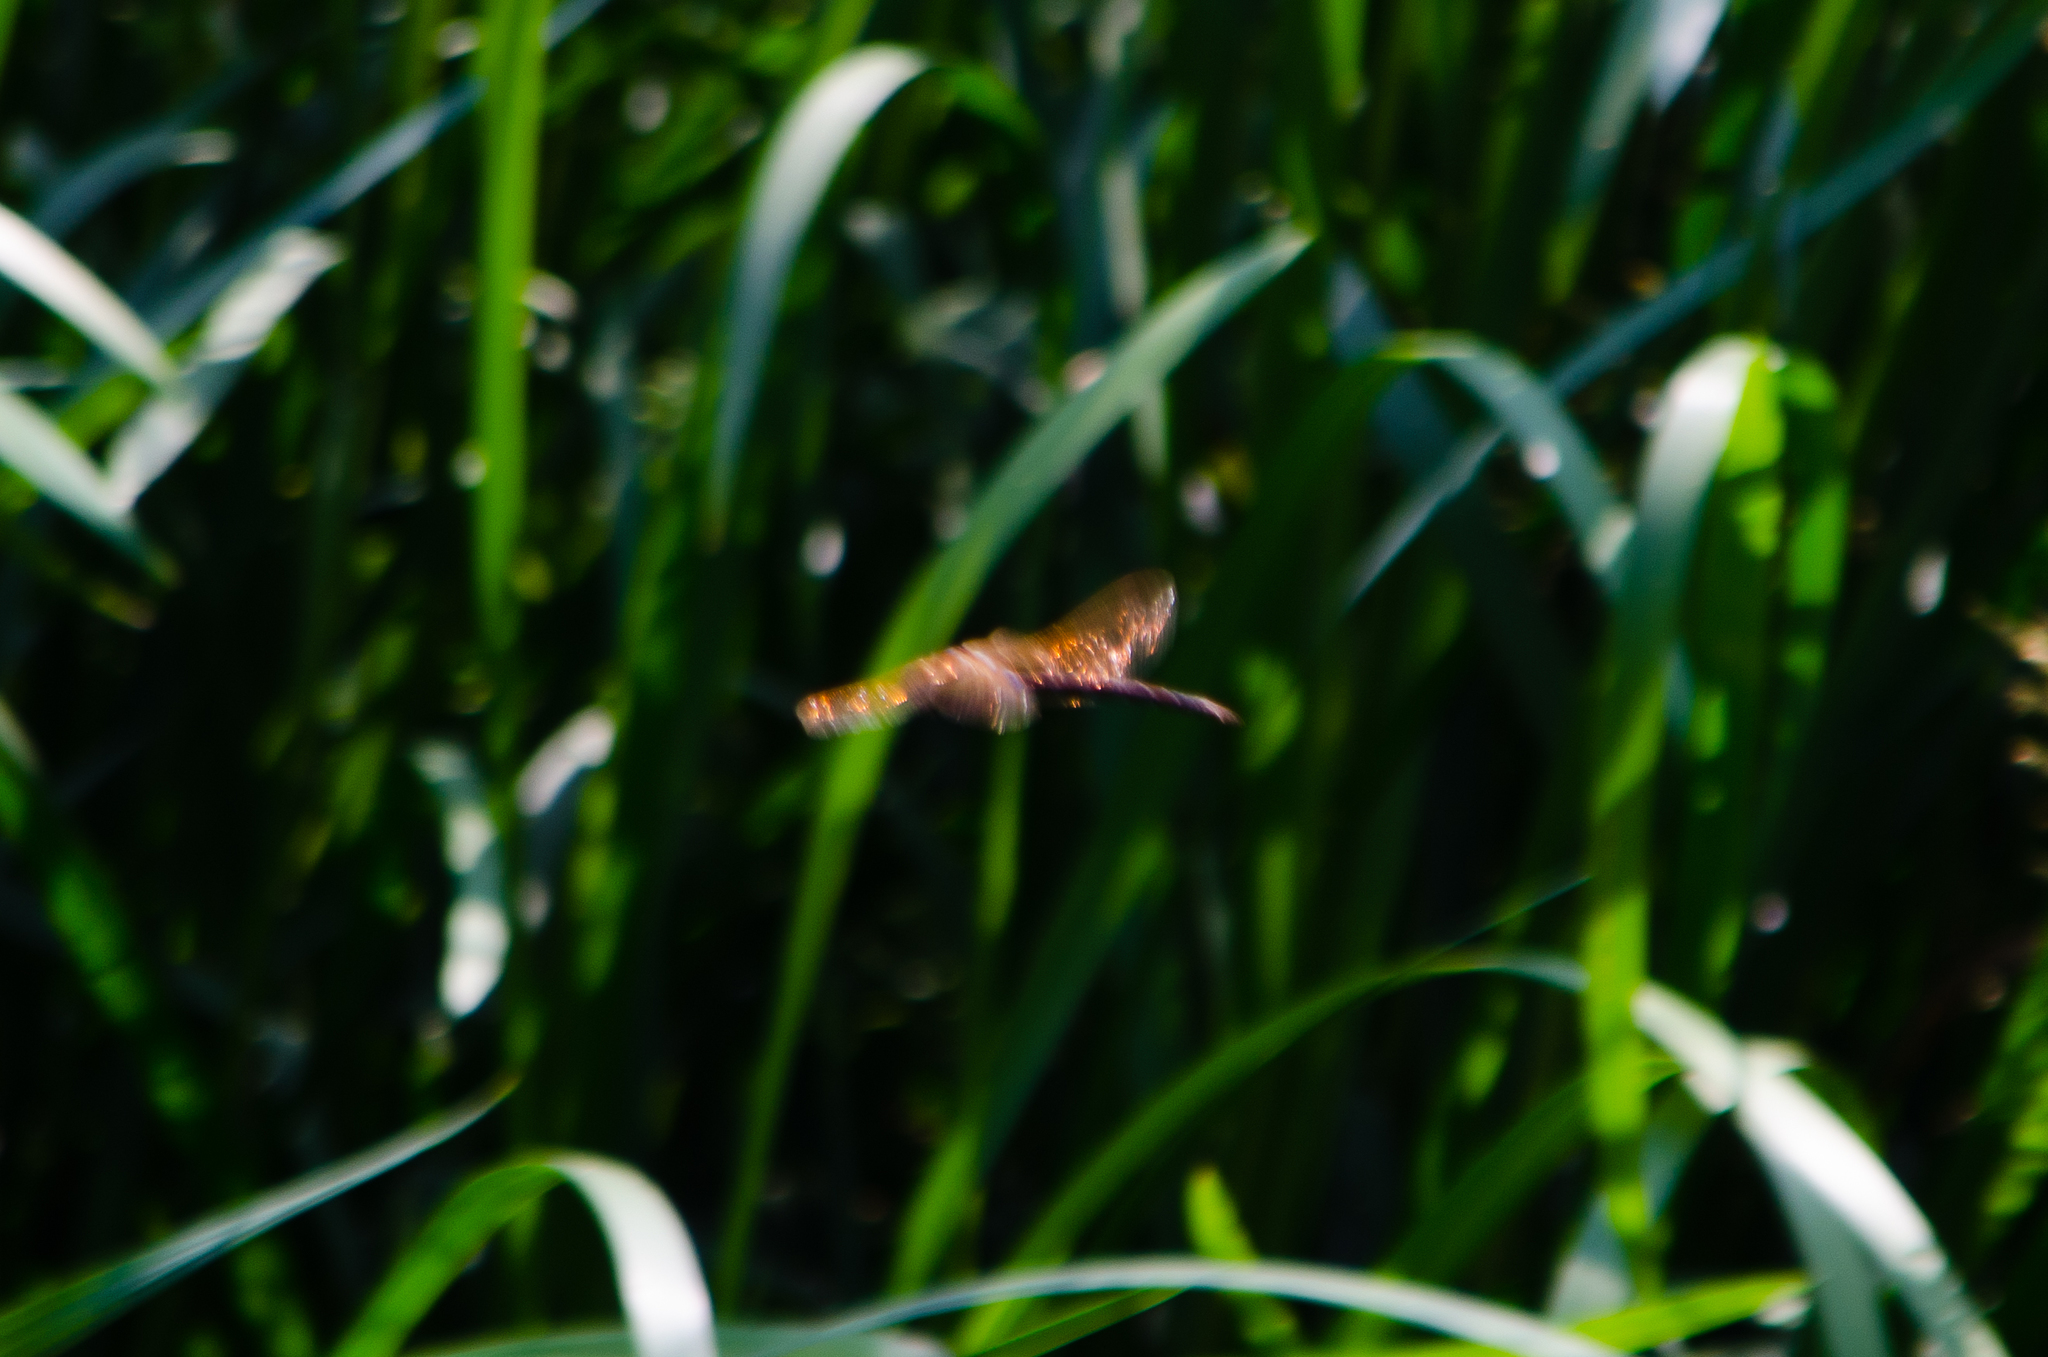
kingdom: Animalia
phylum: Arthropoda
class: Insecta
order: Odonata
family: Aeshnidae
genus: Aeshna
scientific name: Aeshna grandis
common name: Brown hawker
